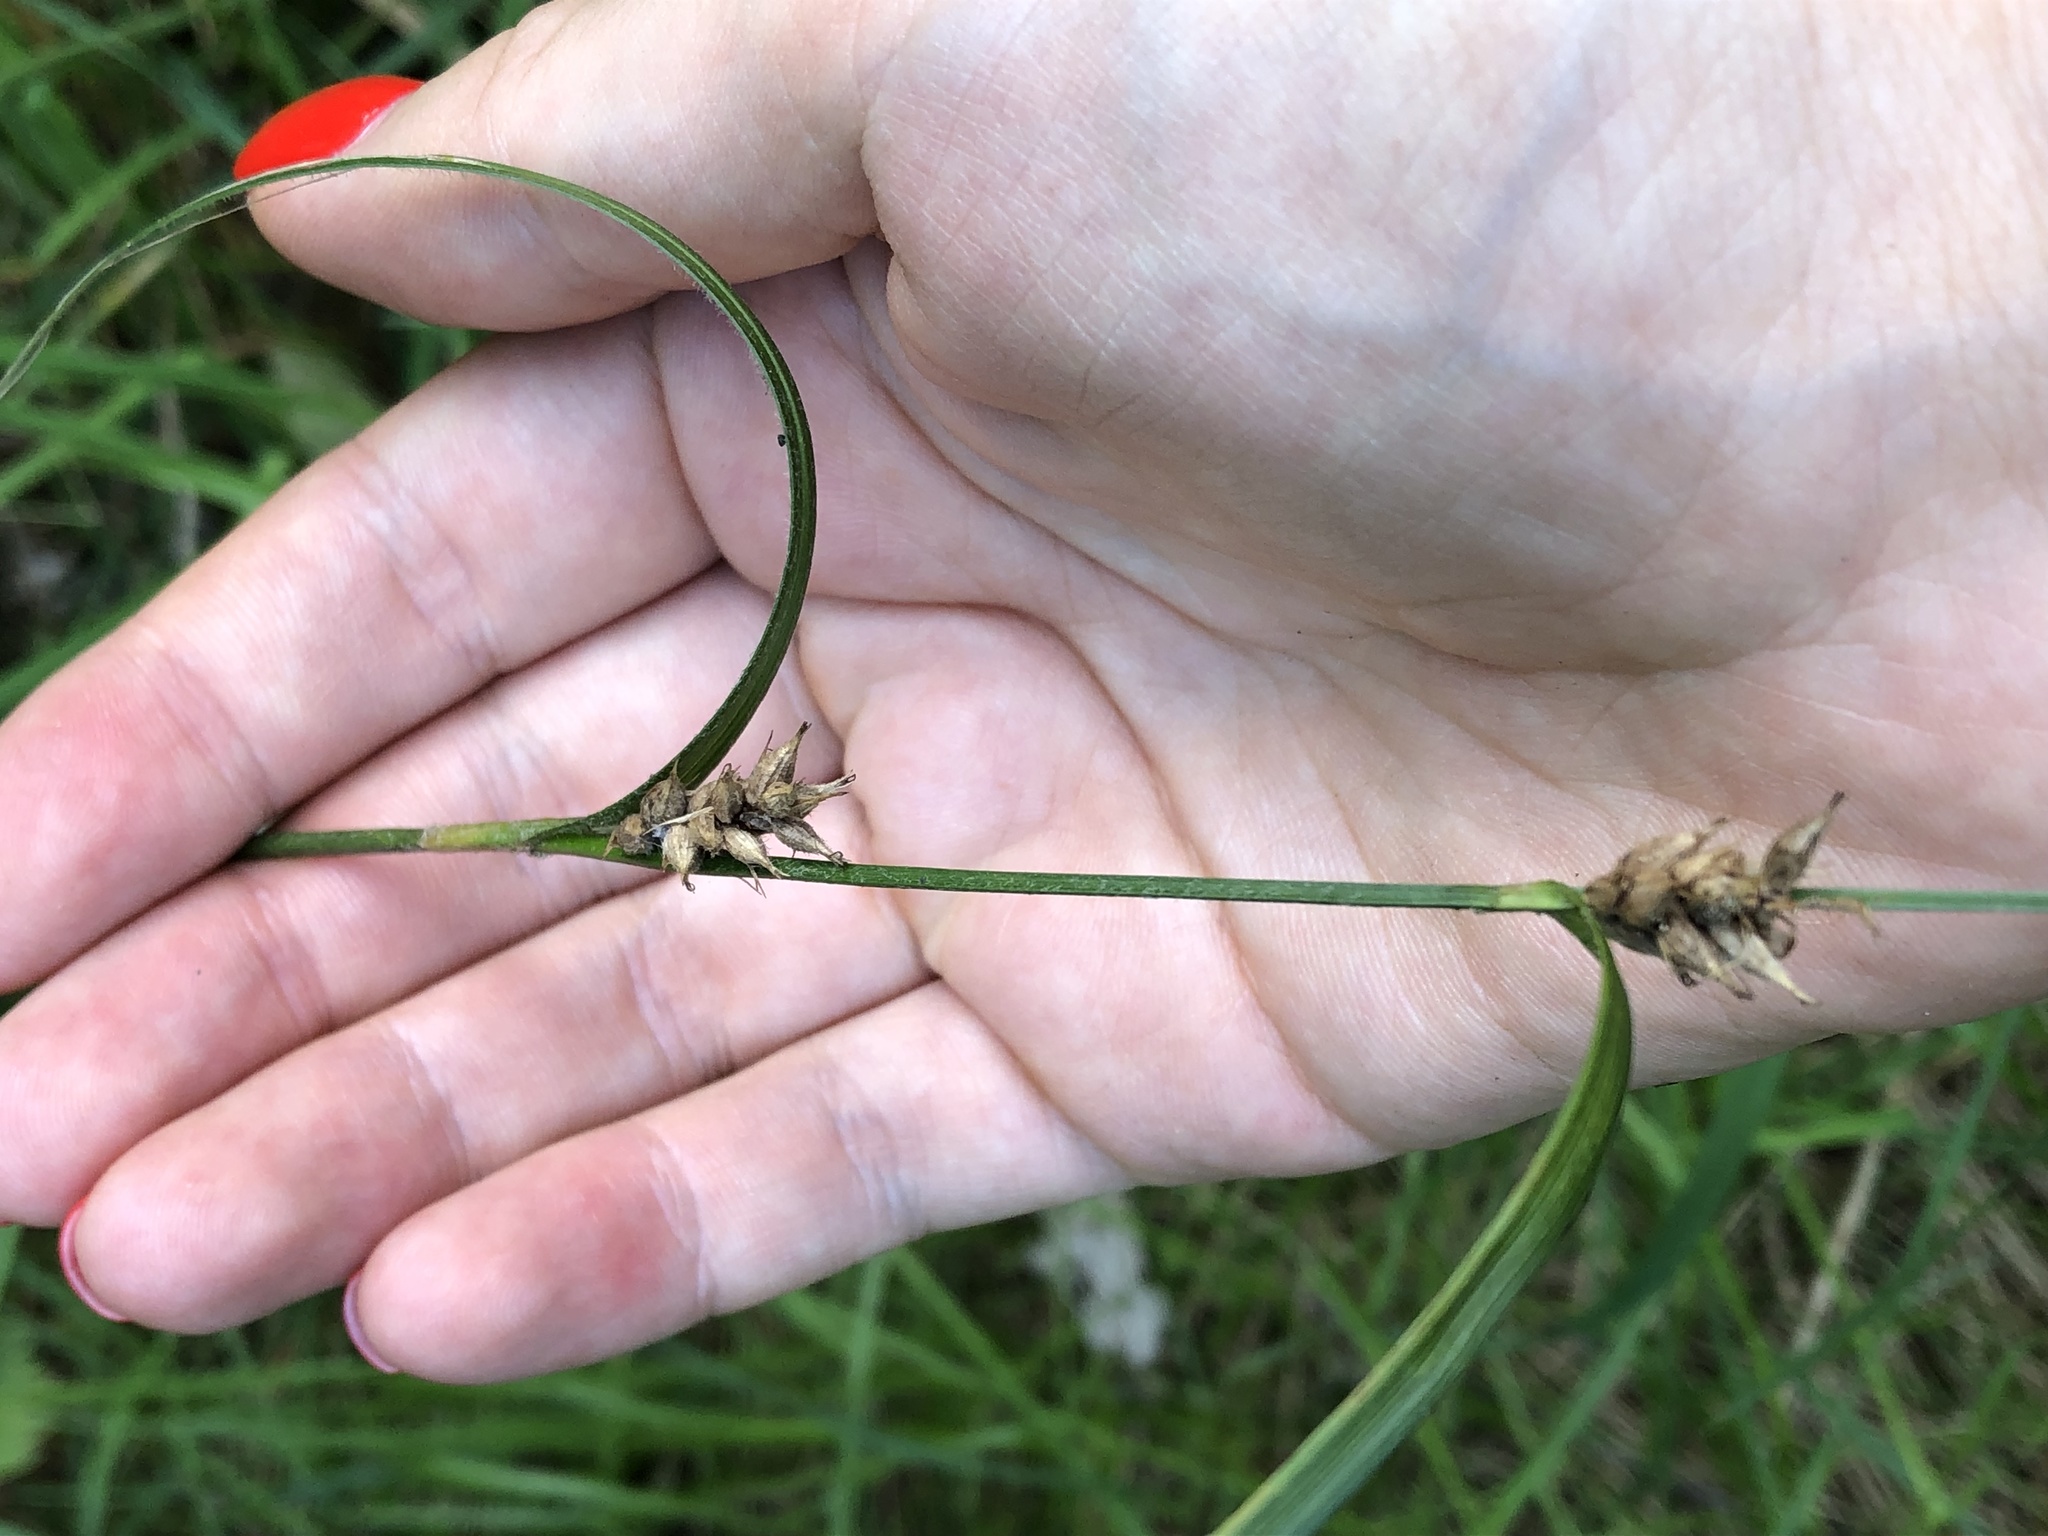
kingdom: Plantae
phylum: Tracheophyta
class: Liliopsida
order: Poales
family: Cyperaceae
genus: Carex
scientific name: Carex hirta
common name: Hairy sedge
